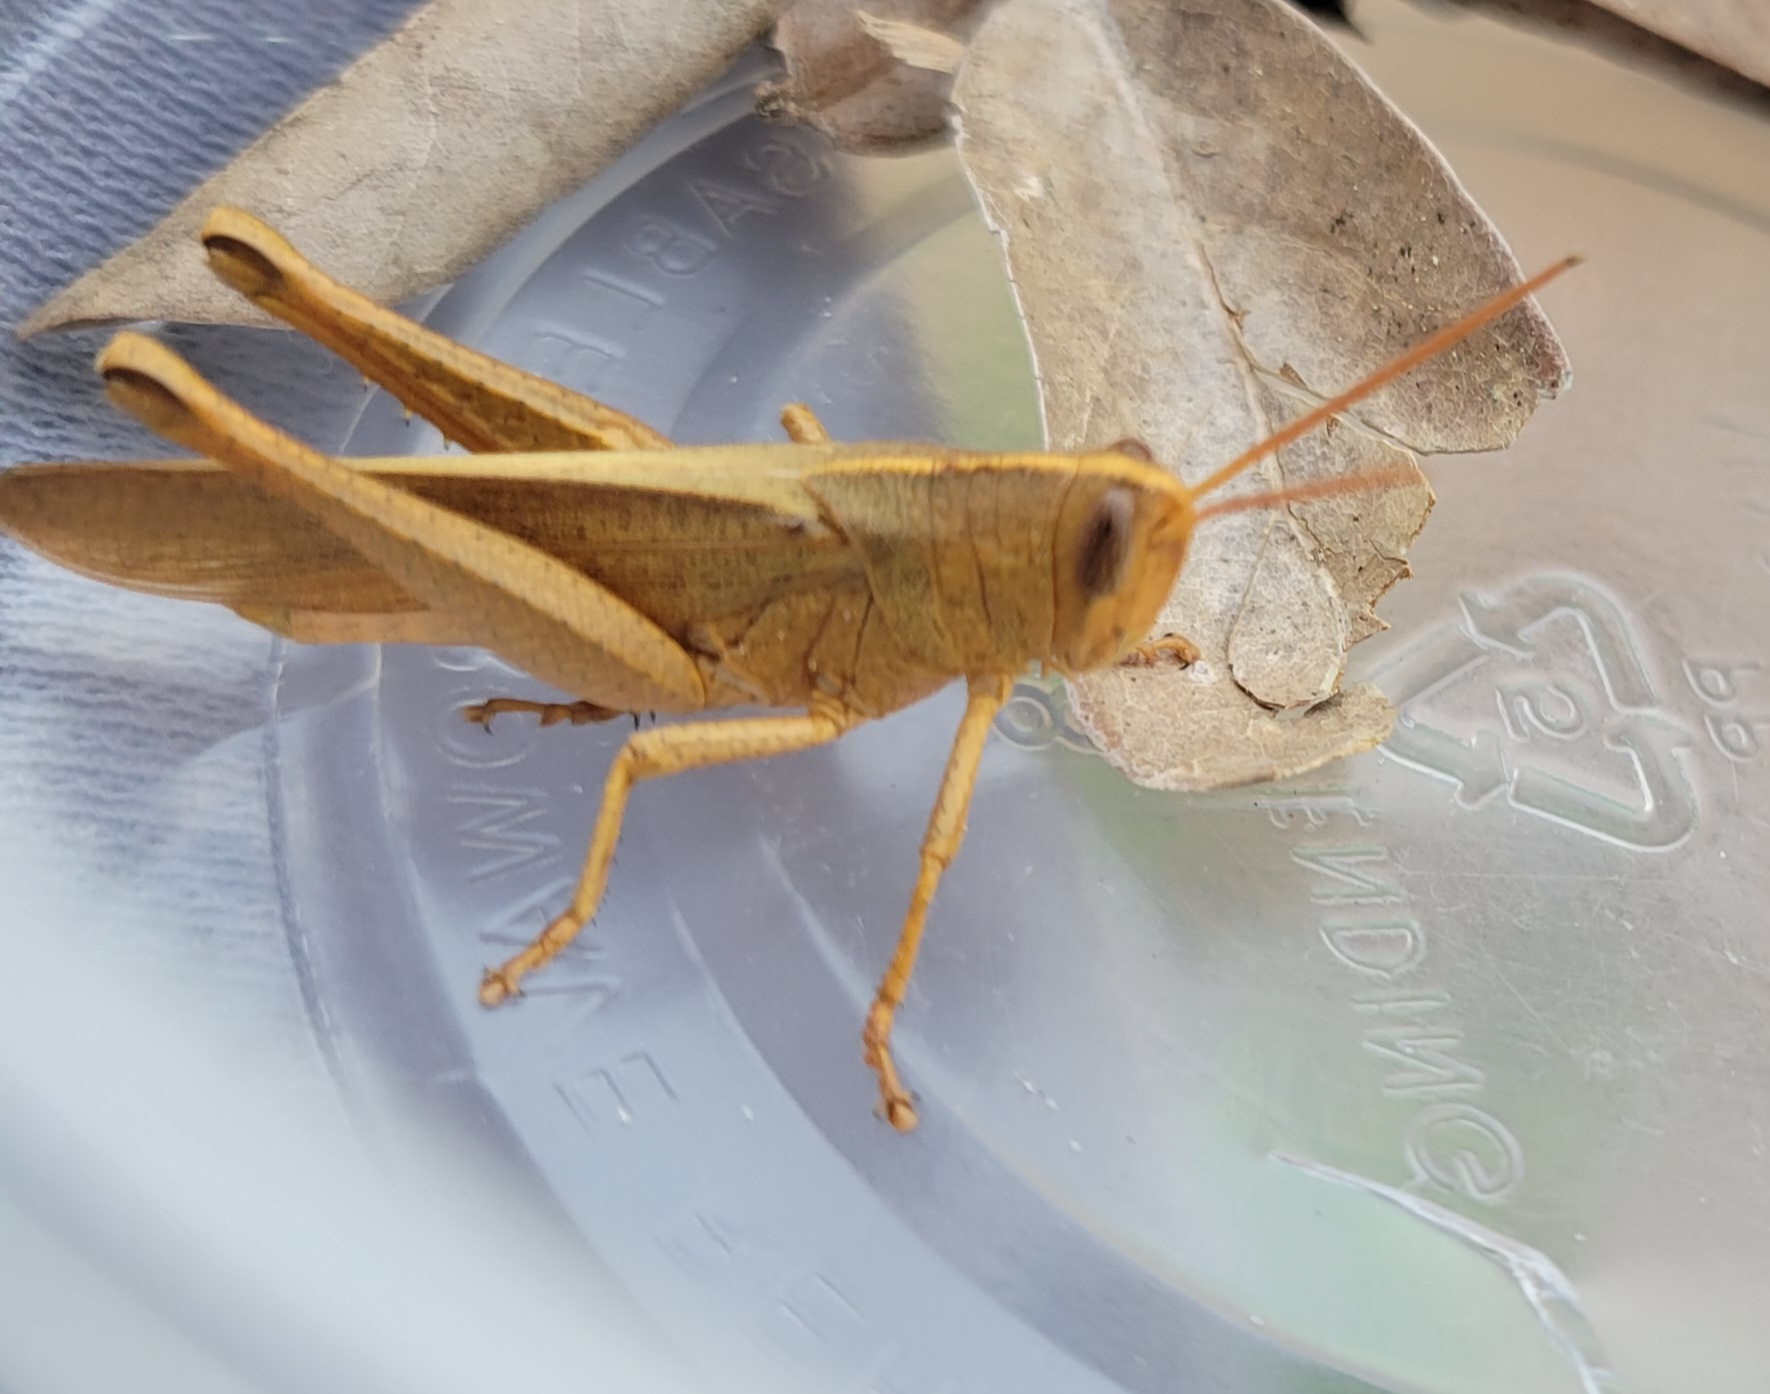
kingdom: Animalia
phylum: Arthropoda
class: Insecta
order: Orthoptera
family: Acrididae
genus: Schistocerca
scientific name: Schistocerca damnifica
